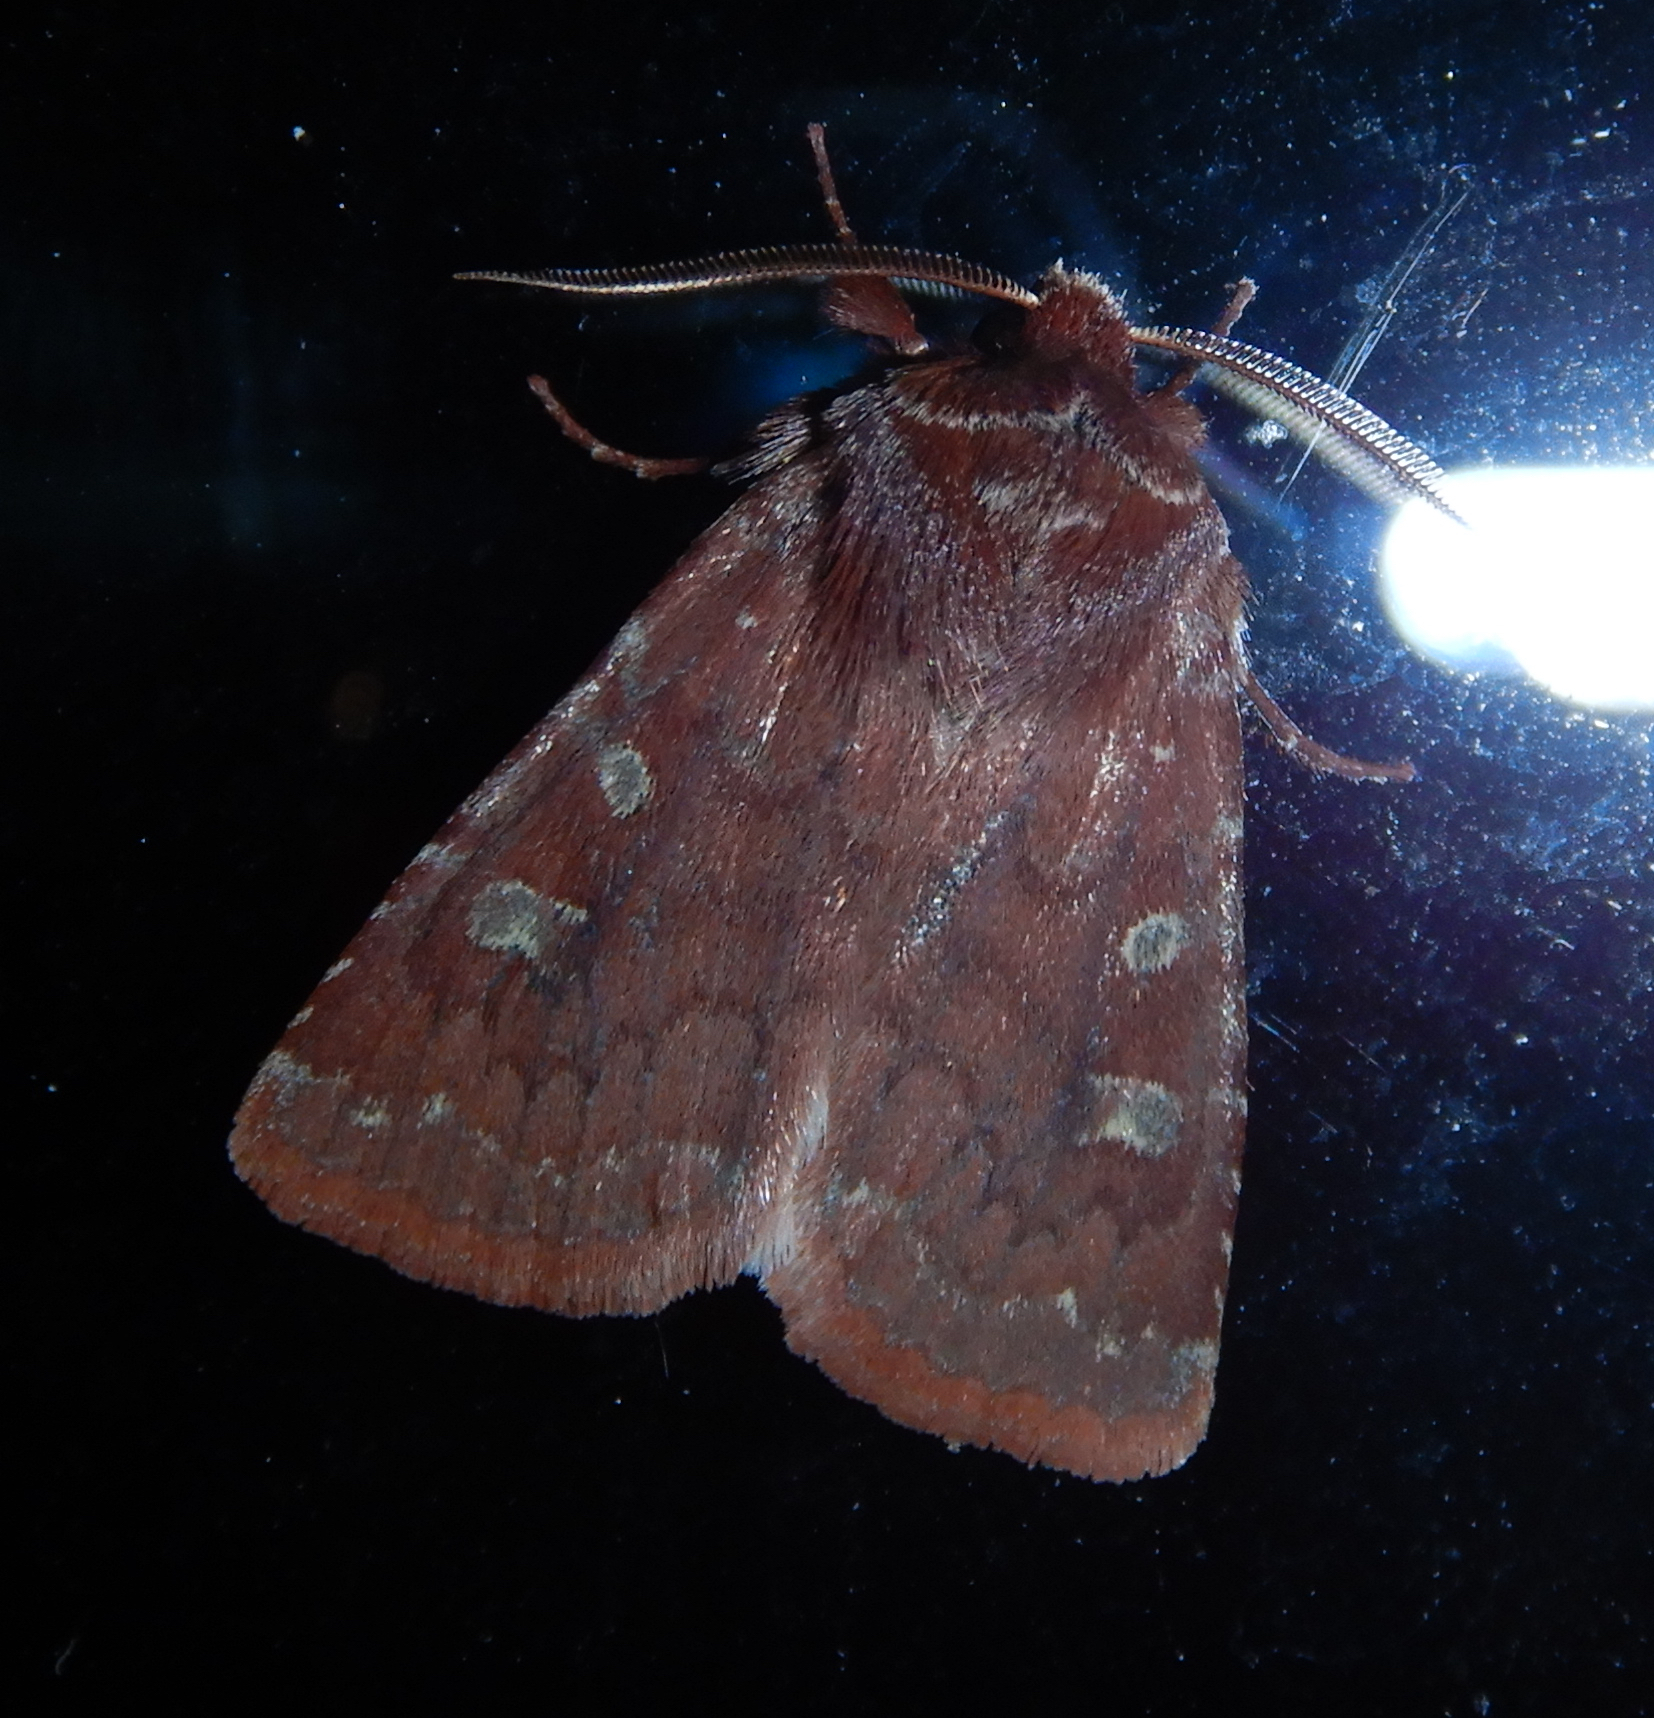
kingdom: Animalia
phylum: Arthropoda
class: Insecta
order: Lepidoptera
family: Noctuidae
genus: Cerastis
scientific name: Cerastis tenebrifera
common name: Reddish speckled dart
